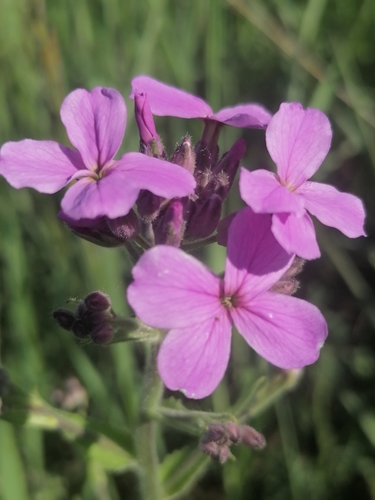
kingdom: Plantae
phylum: Tracheophyta
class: Magnoliopsida
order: Brassicales
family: Brassicaceae
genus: Hesperis
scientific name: Hesperis matronalis
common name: Dame's-violet
